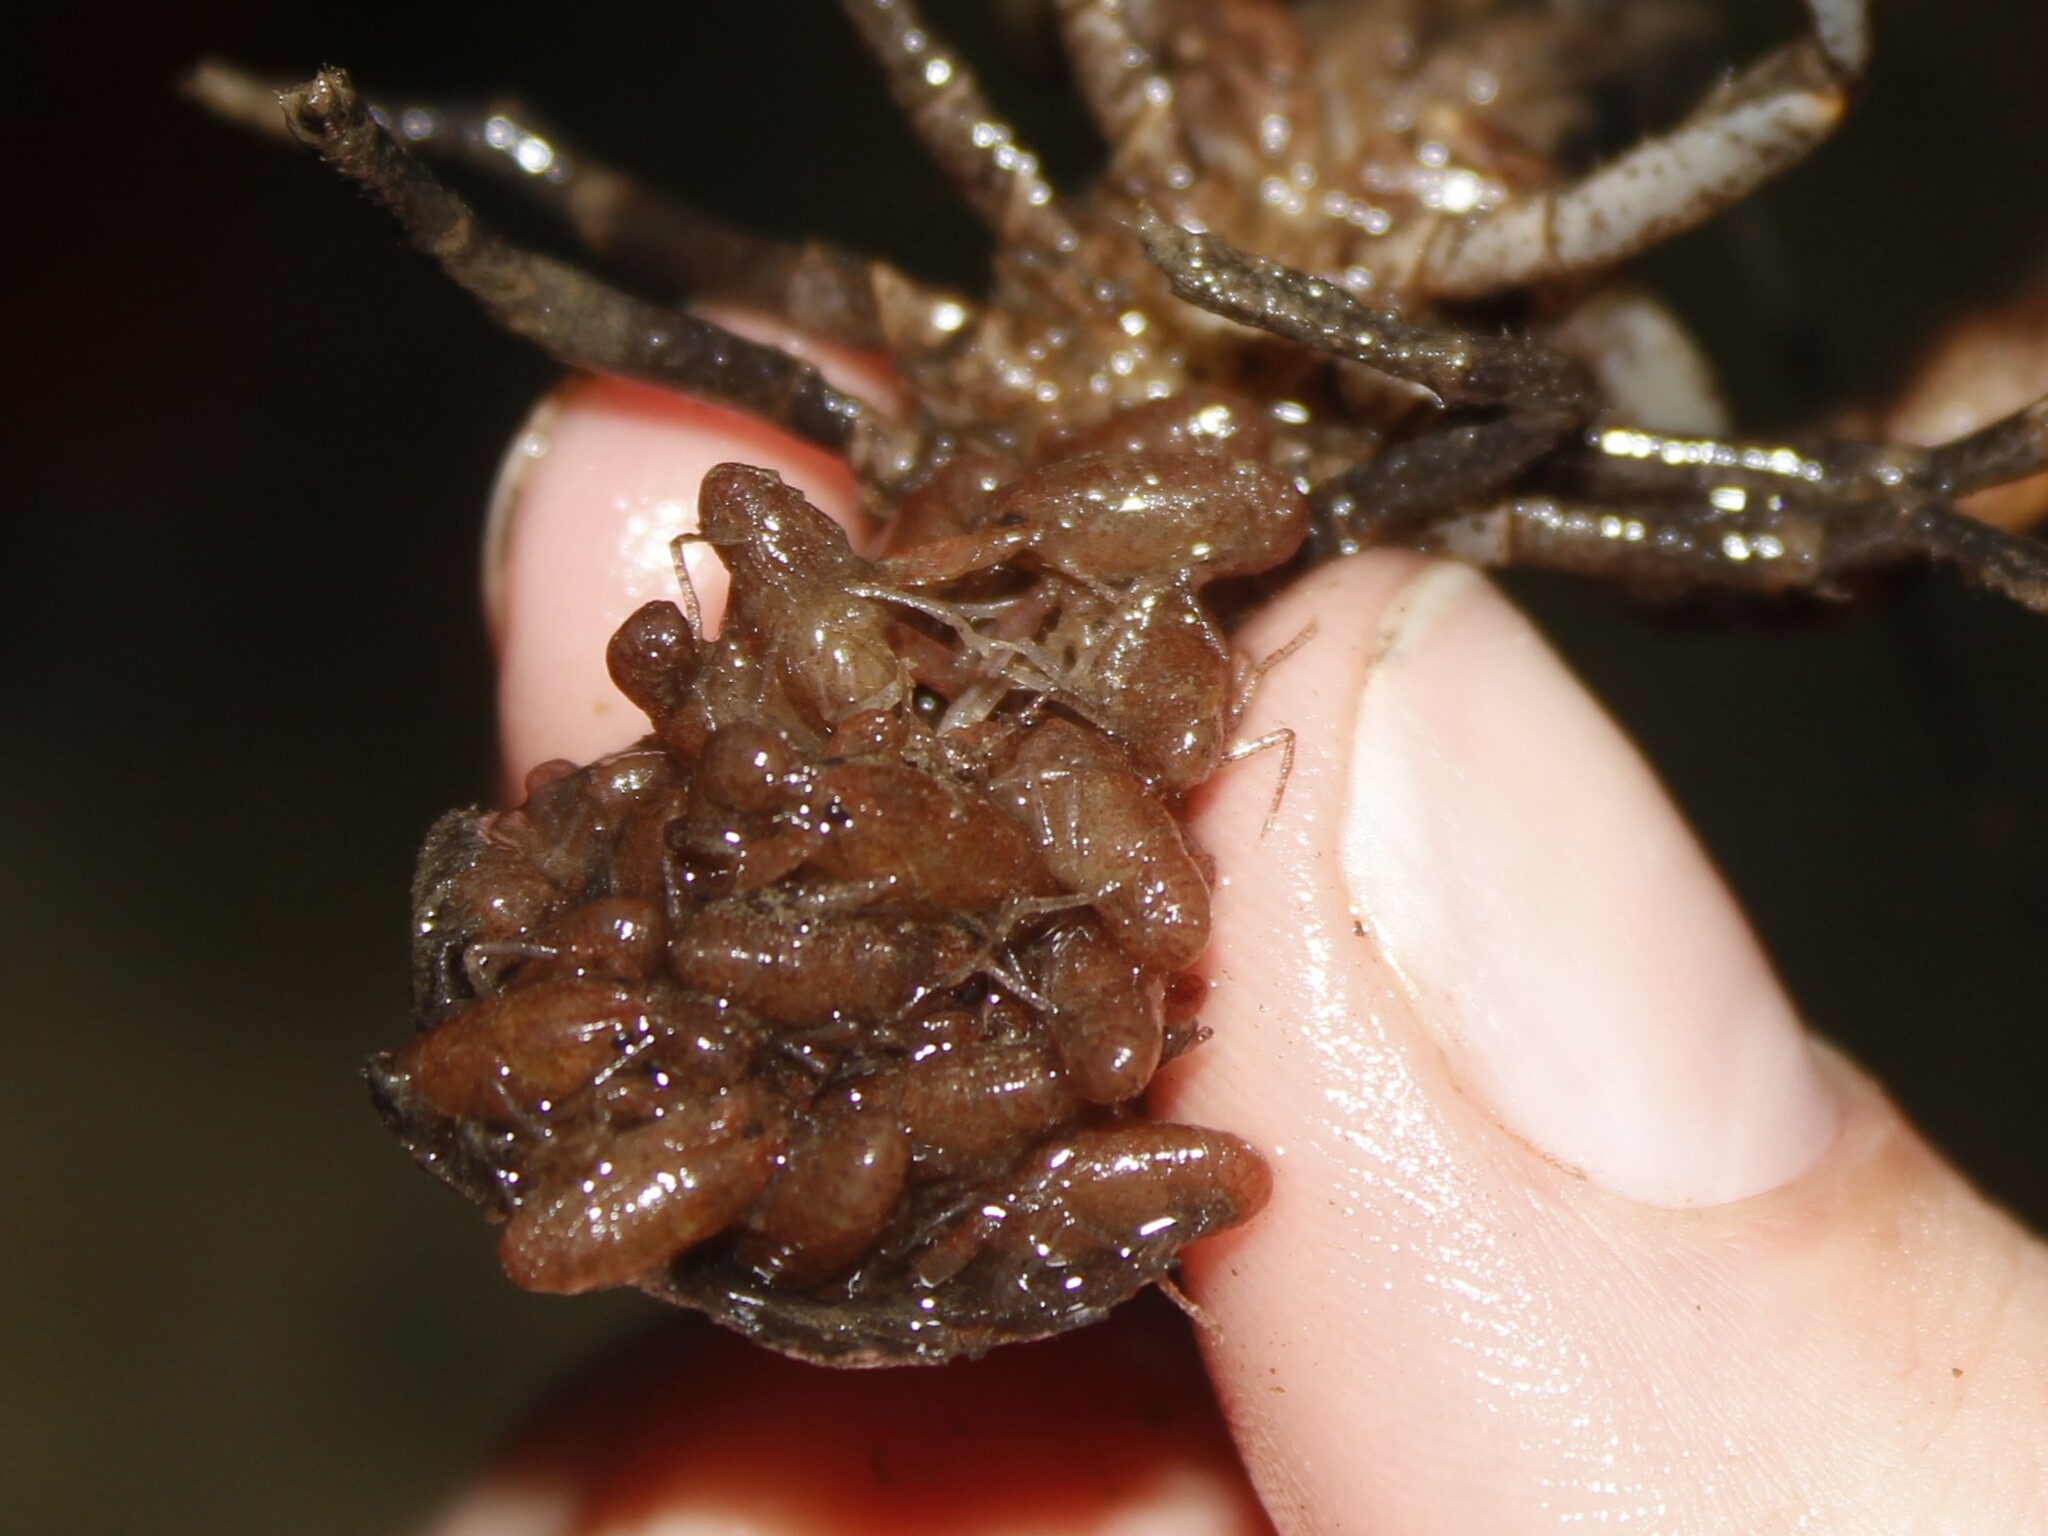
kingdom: Animalia
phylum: Arthropoda
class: Malacostraca
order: Decapoda
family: Cambaridae
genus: Cambarus
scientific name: Cambarus bartonii
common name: Appalachian brook crayfish
